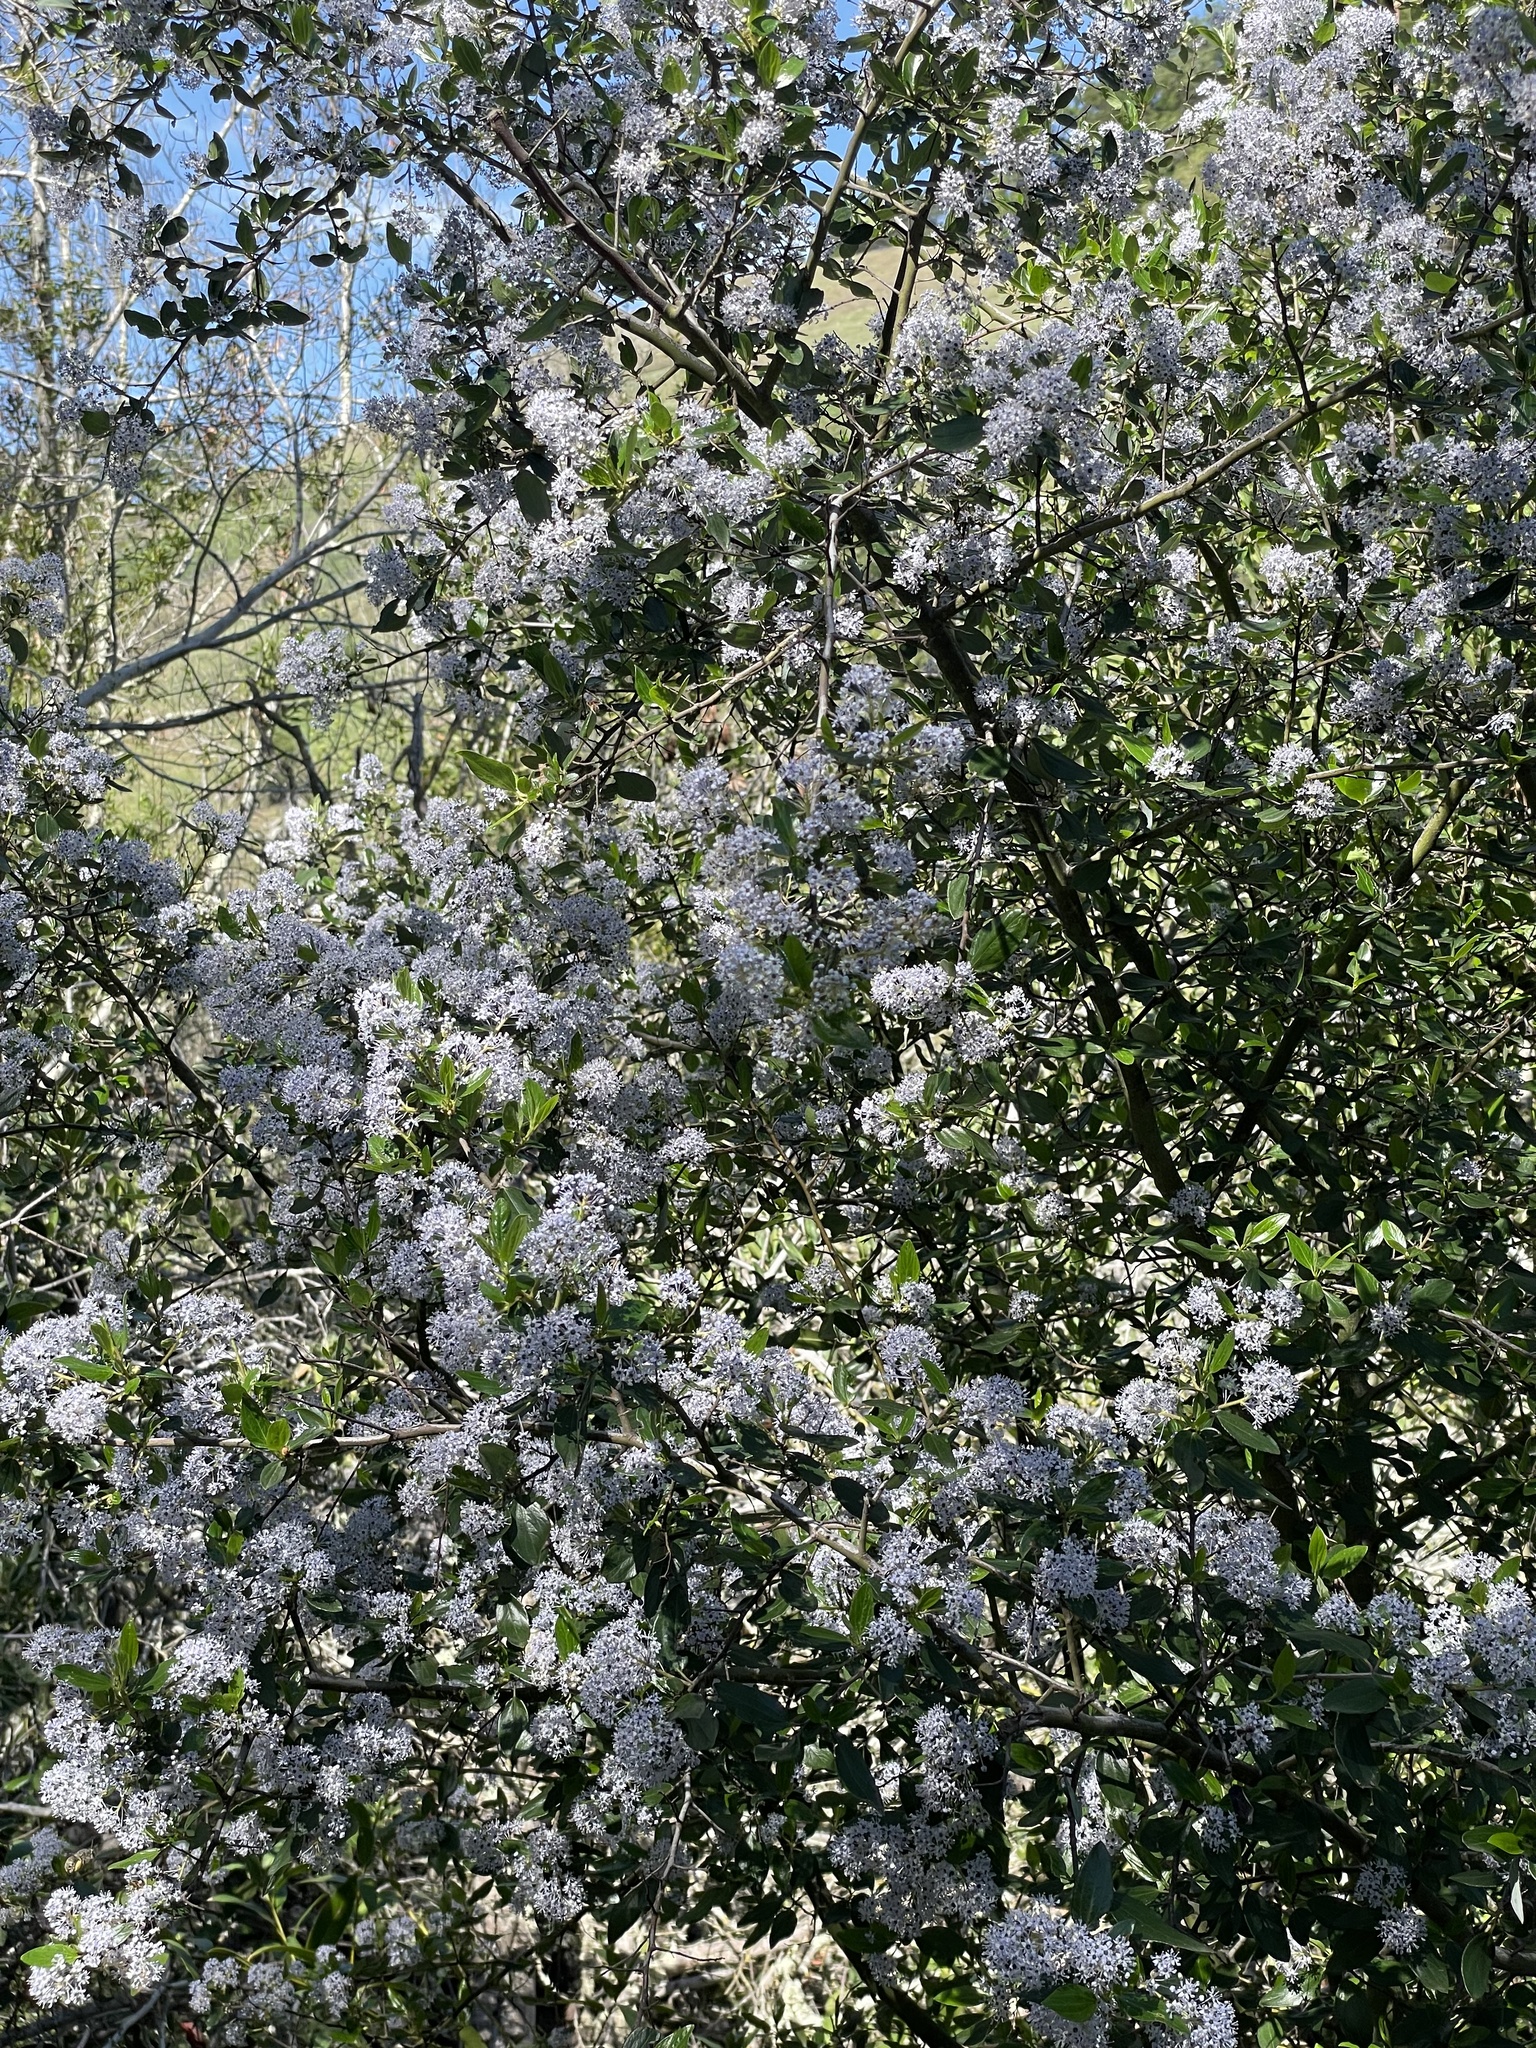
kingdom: Plantae
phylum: Tracheophyta
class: Magnoliopsida
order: Rosales
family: Rhamnaceae
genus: Ceanothus
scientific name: Ceanothus sorediatus
